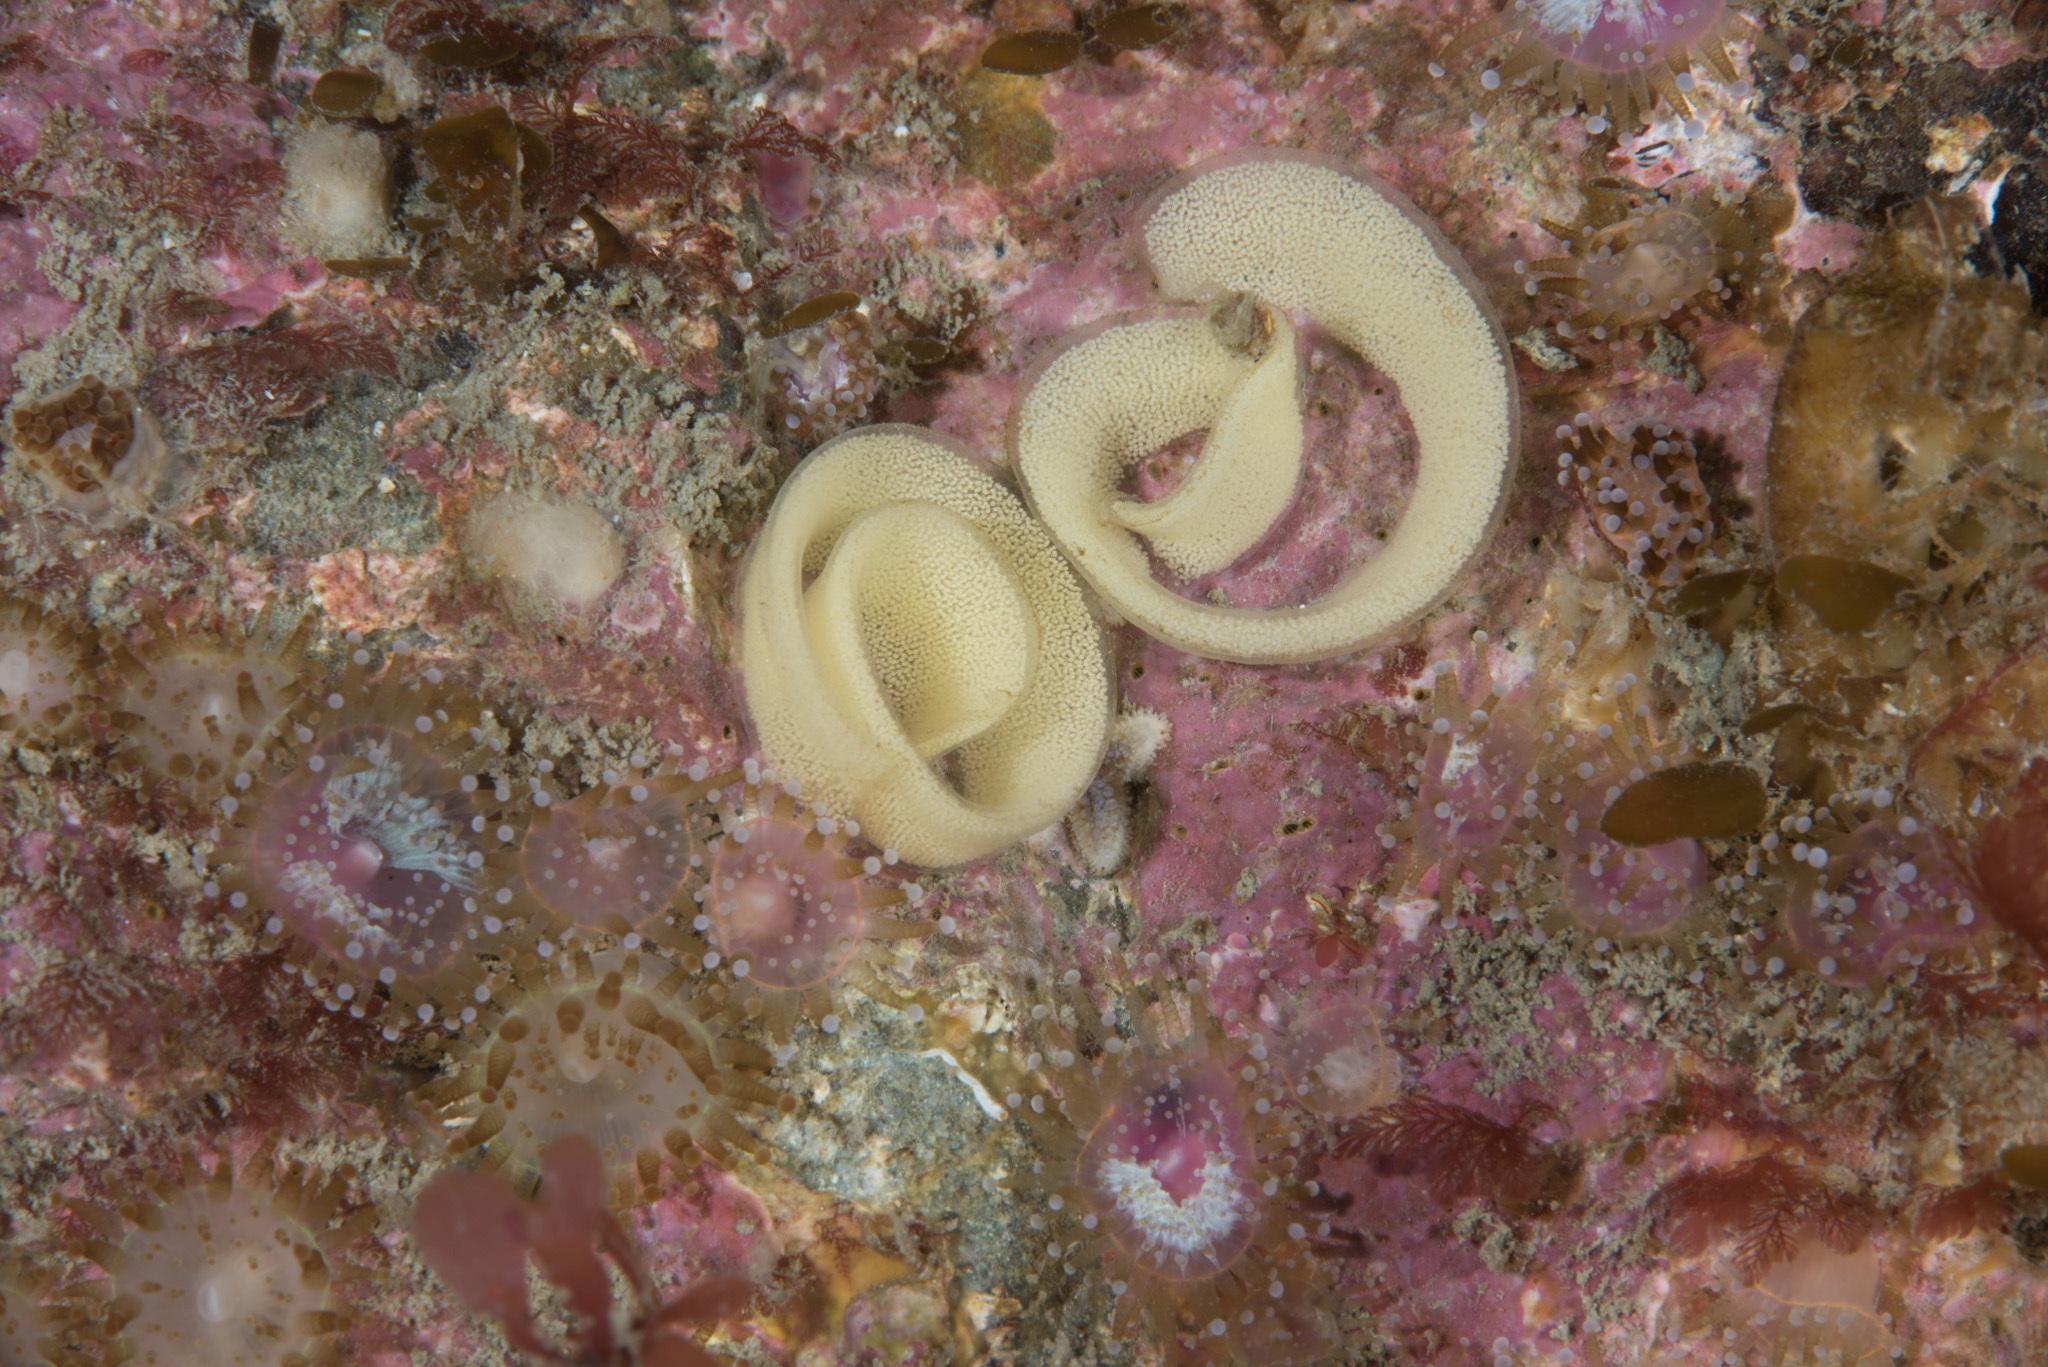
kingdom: Animalia
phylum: Mollusca
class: Gastropoda
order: Nudibranchia
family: Dorididae
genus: Doris
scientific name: Doris pseudoargus
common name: Sea lemon
